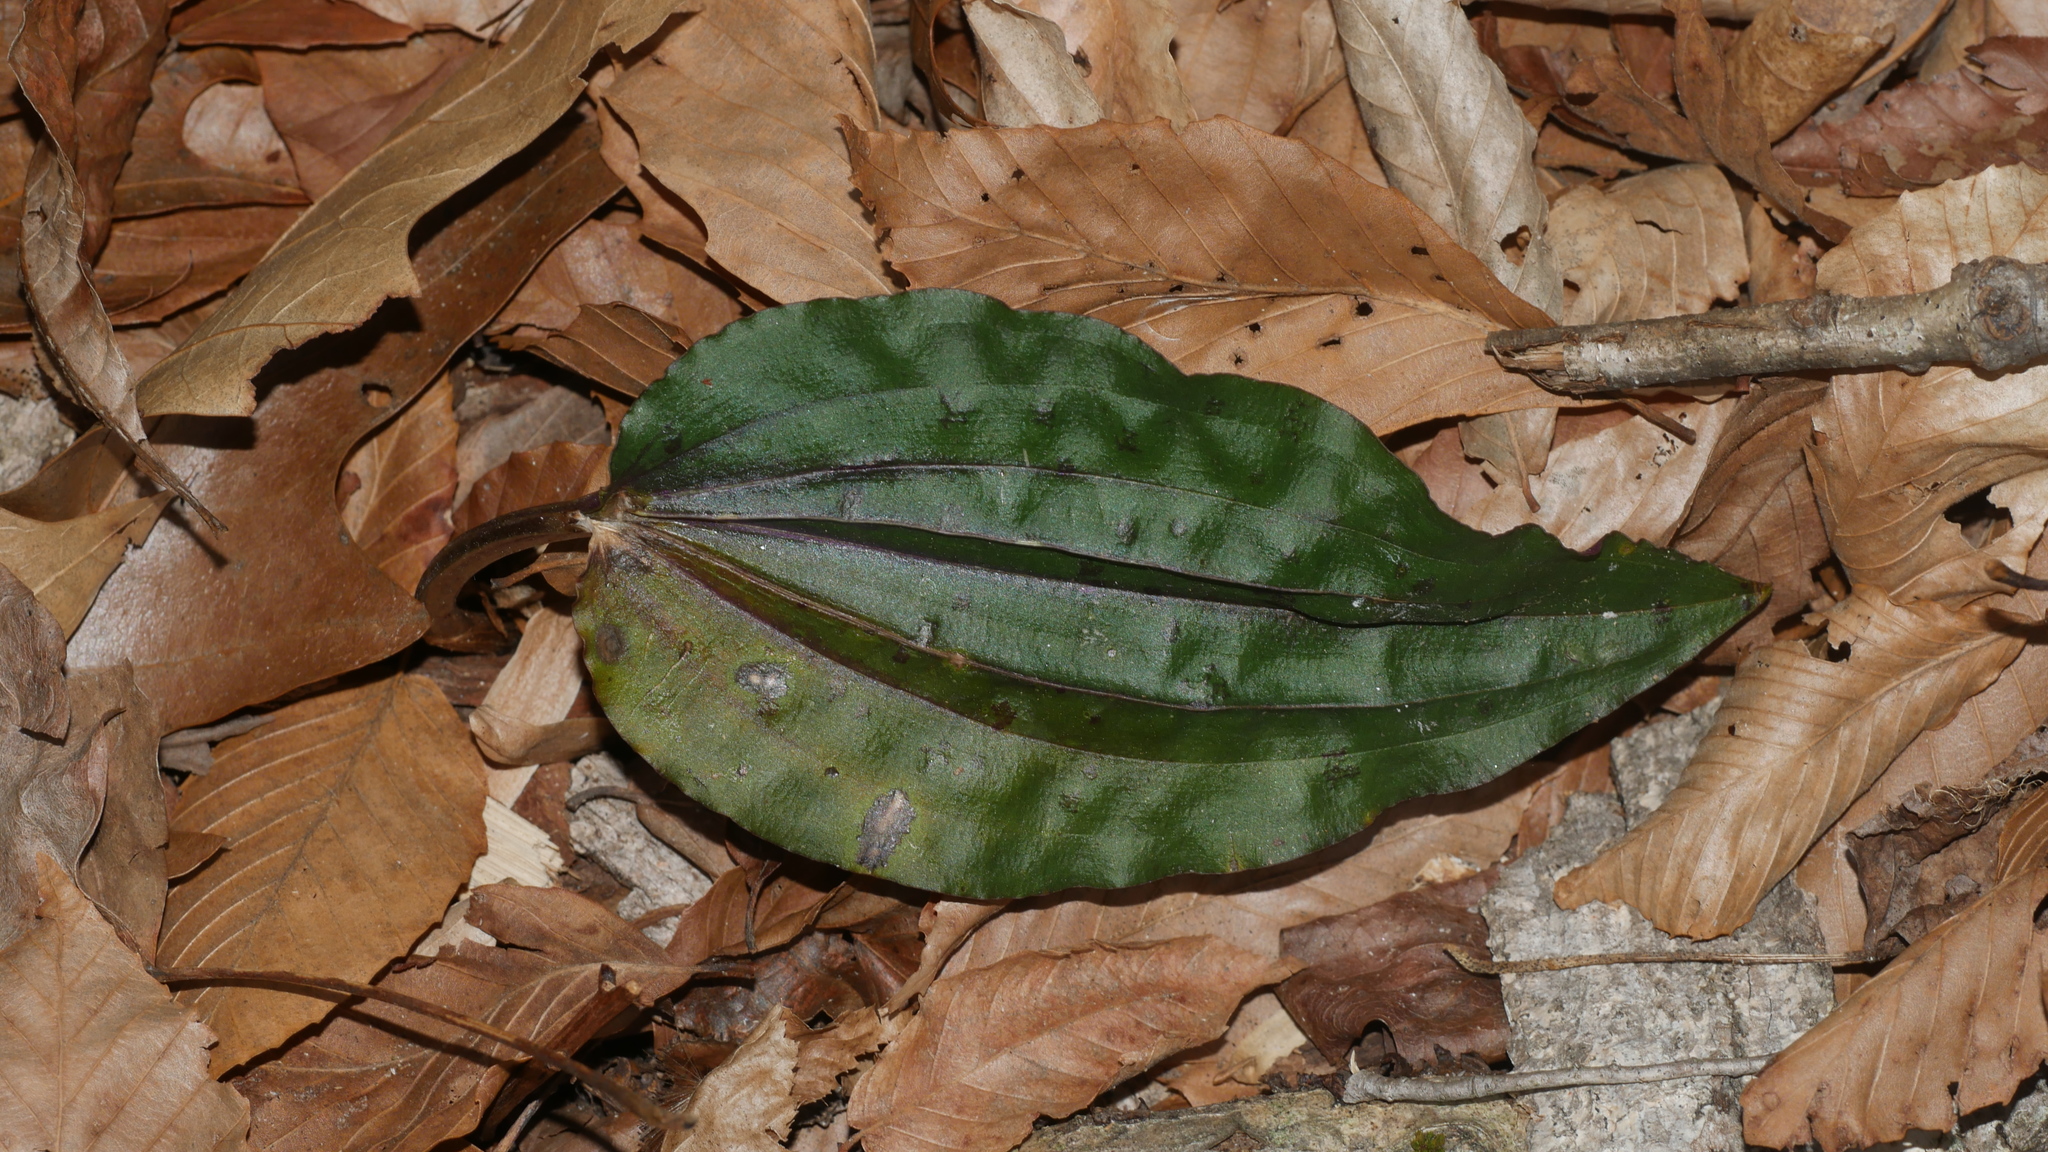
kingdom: Plantae
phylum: Tracheophyta
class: Liliopsida
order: Asparagales
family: Orchidaceae
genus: Tipularia
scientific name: Tipularia discolor
